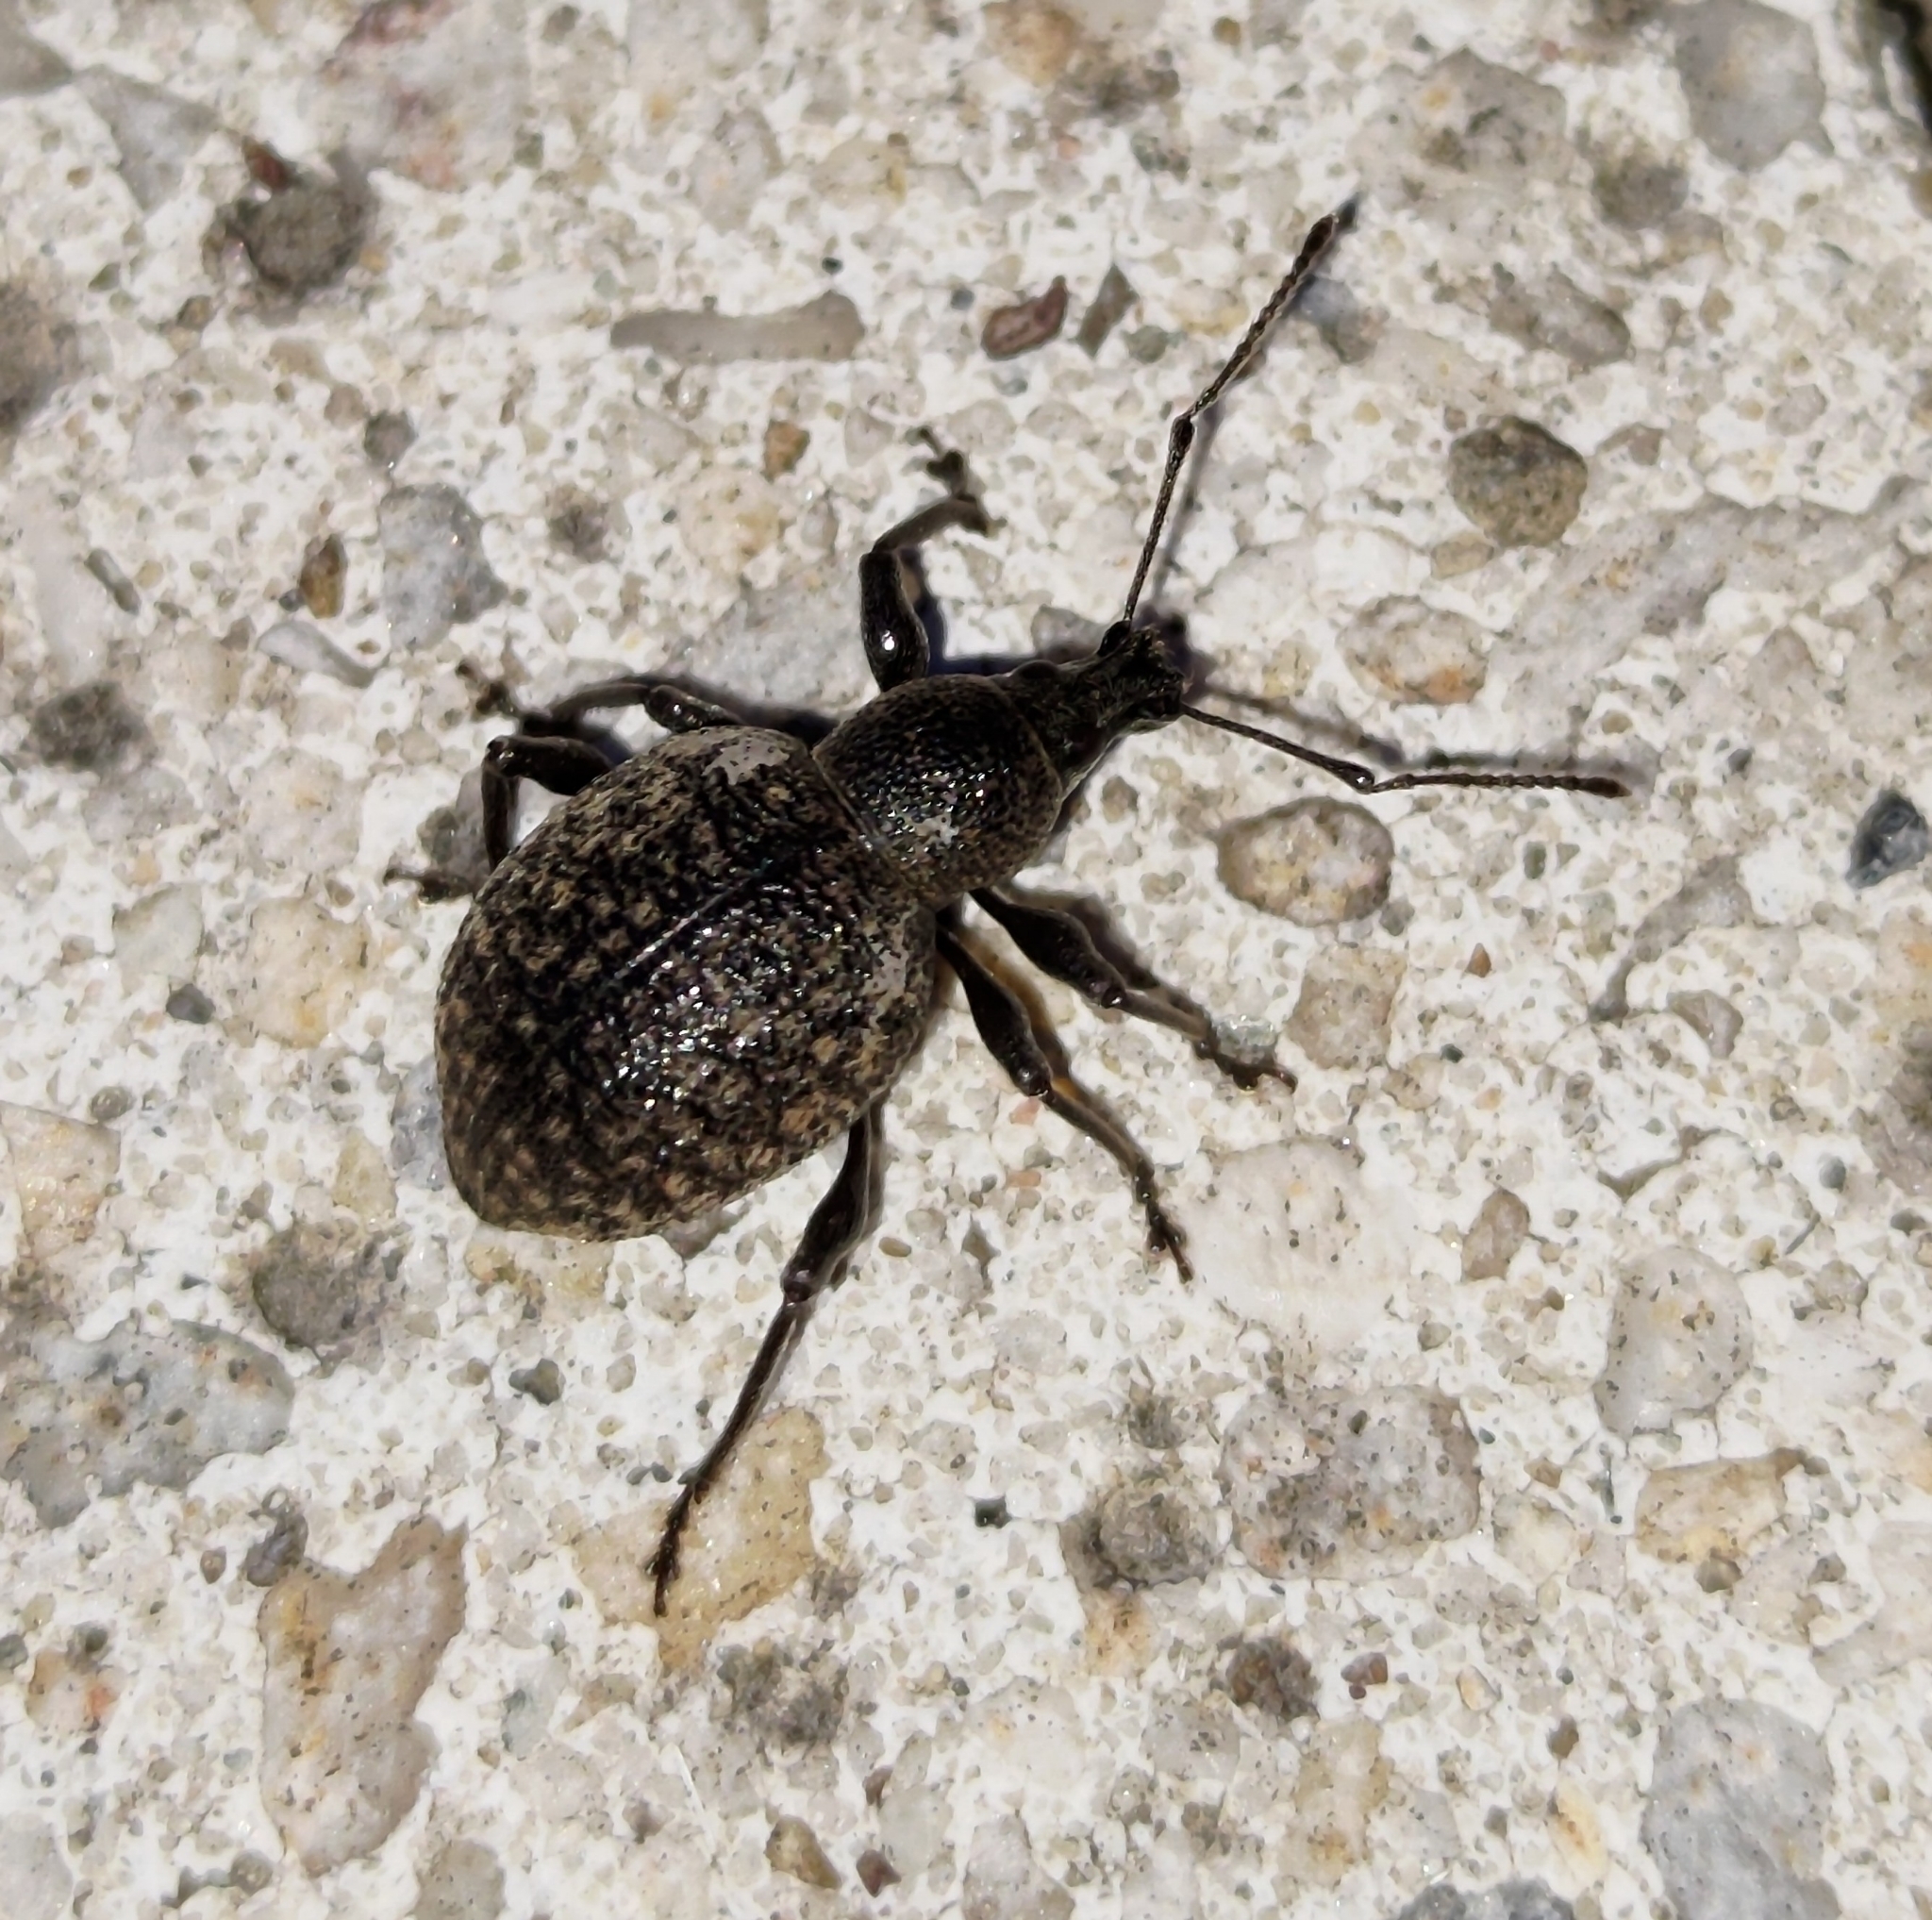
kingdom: Animalia
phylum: Arthropoda
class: Insecta
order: Coleoptera
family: Curculionidae
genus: Otiorhynchus
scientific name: Otiorhynchus armadillo
